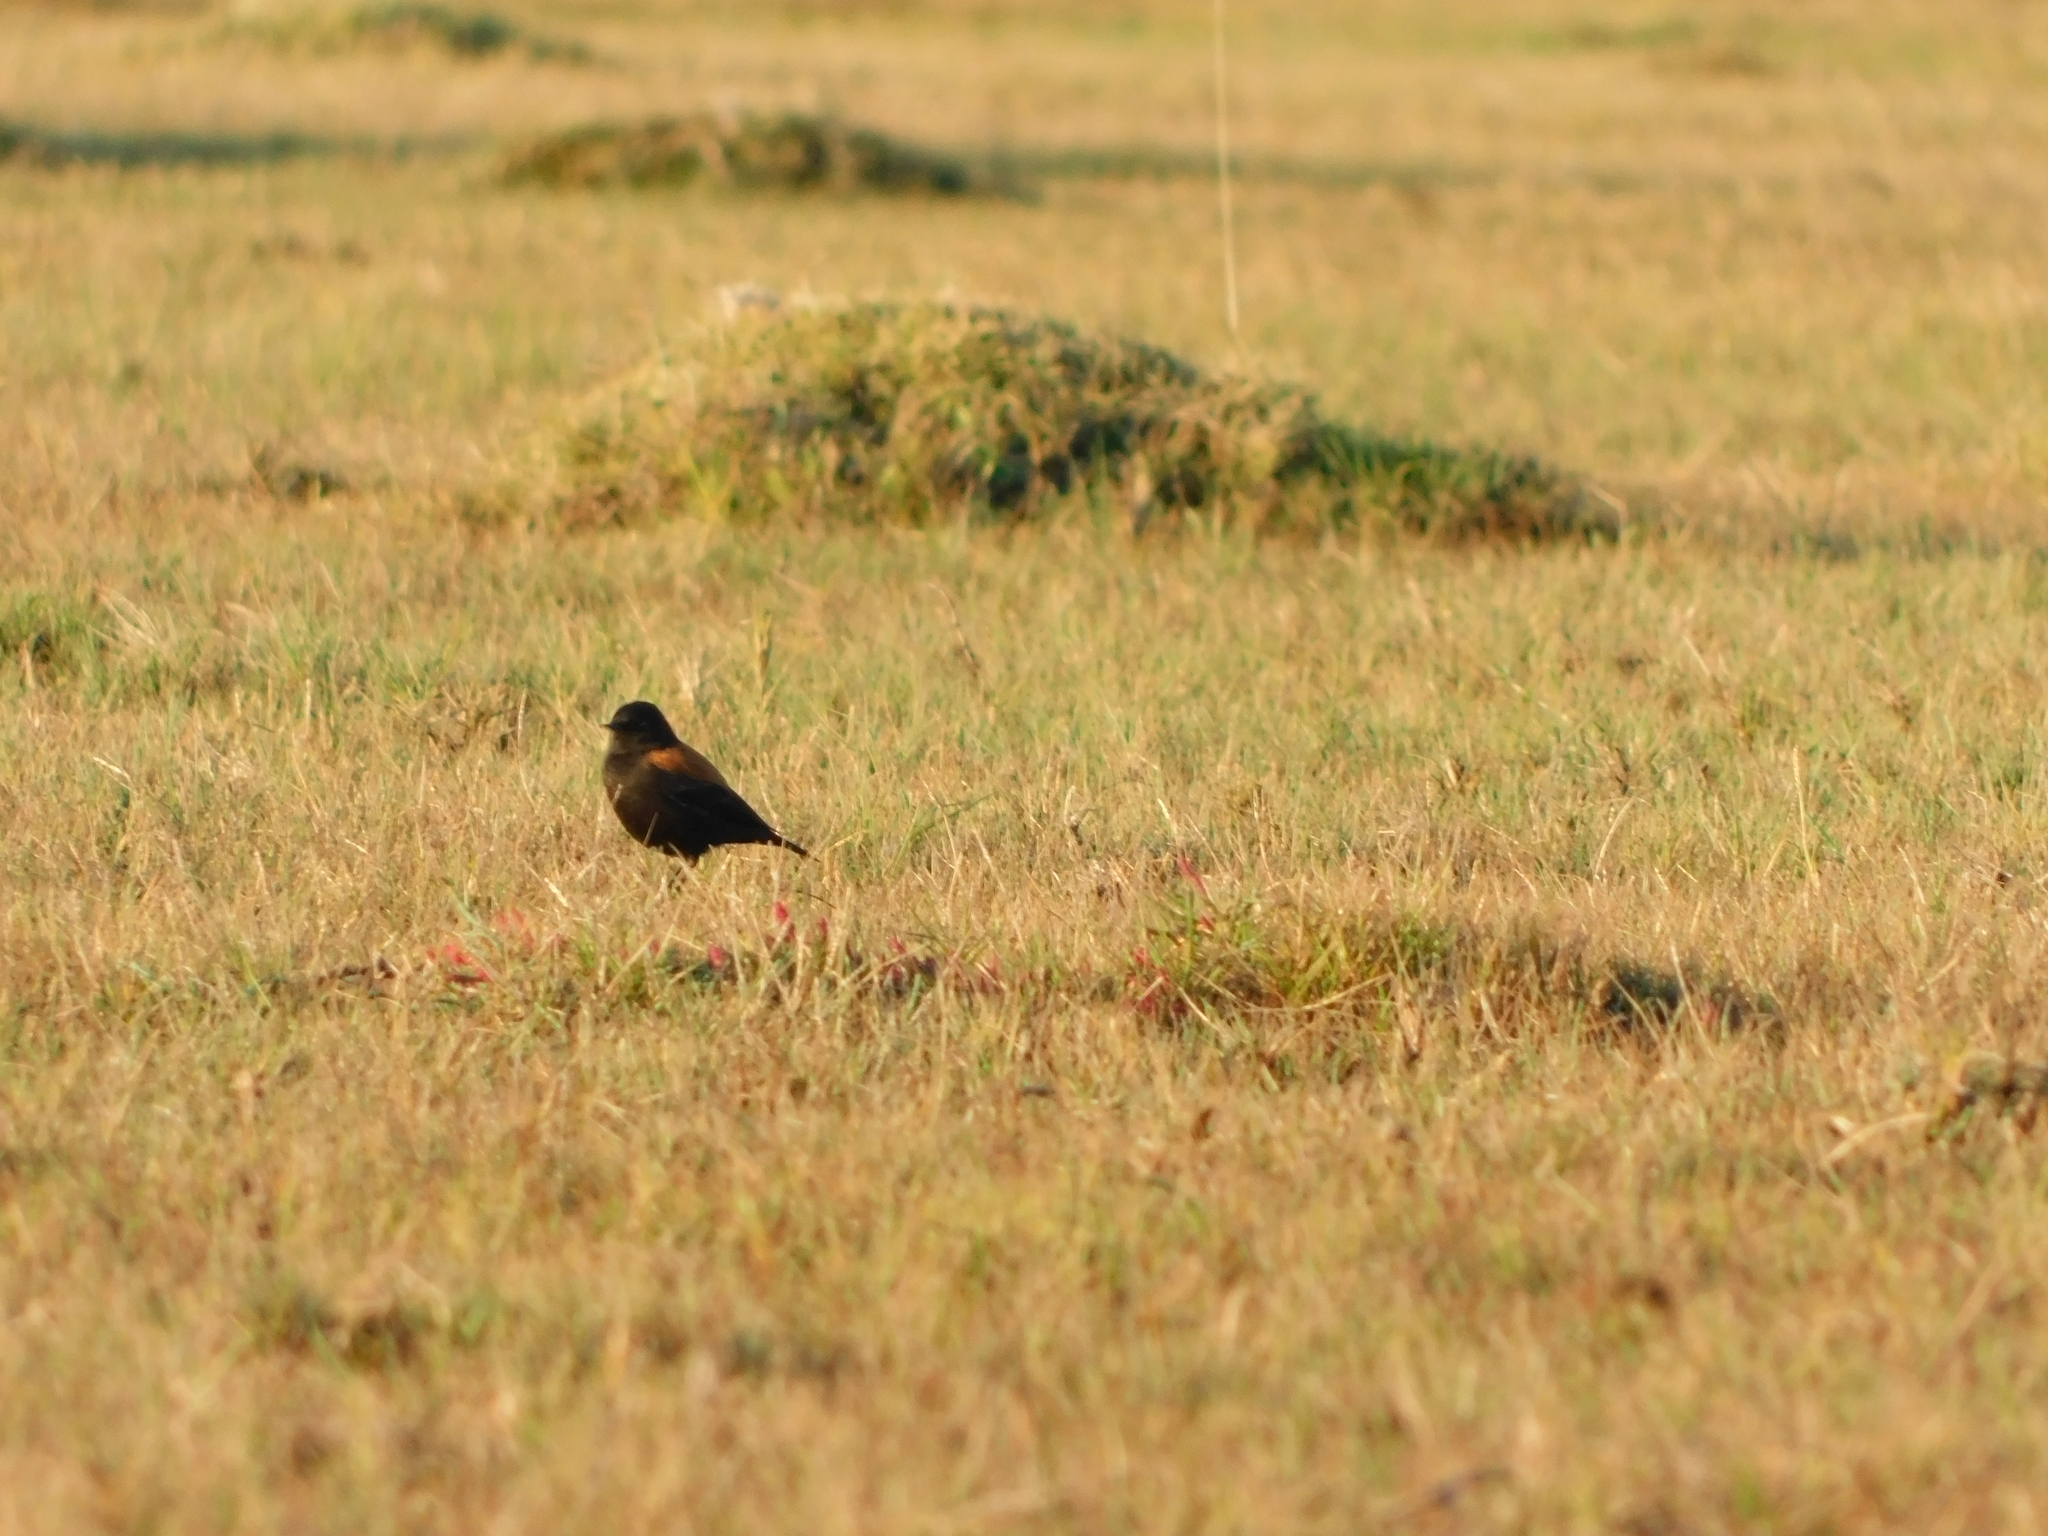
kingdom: Animalia
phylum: Chordata
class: Aves
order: Passeriformes
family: Tyrannidae
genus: Lessonia
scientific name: Lessonia rufa
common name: Austral negrito
